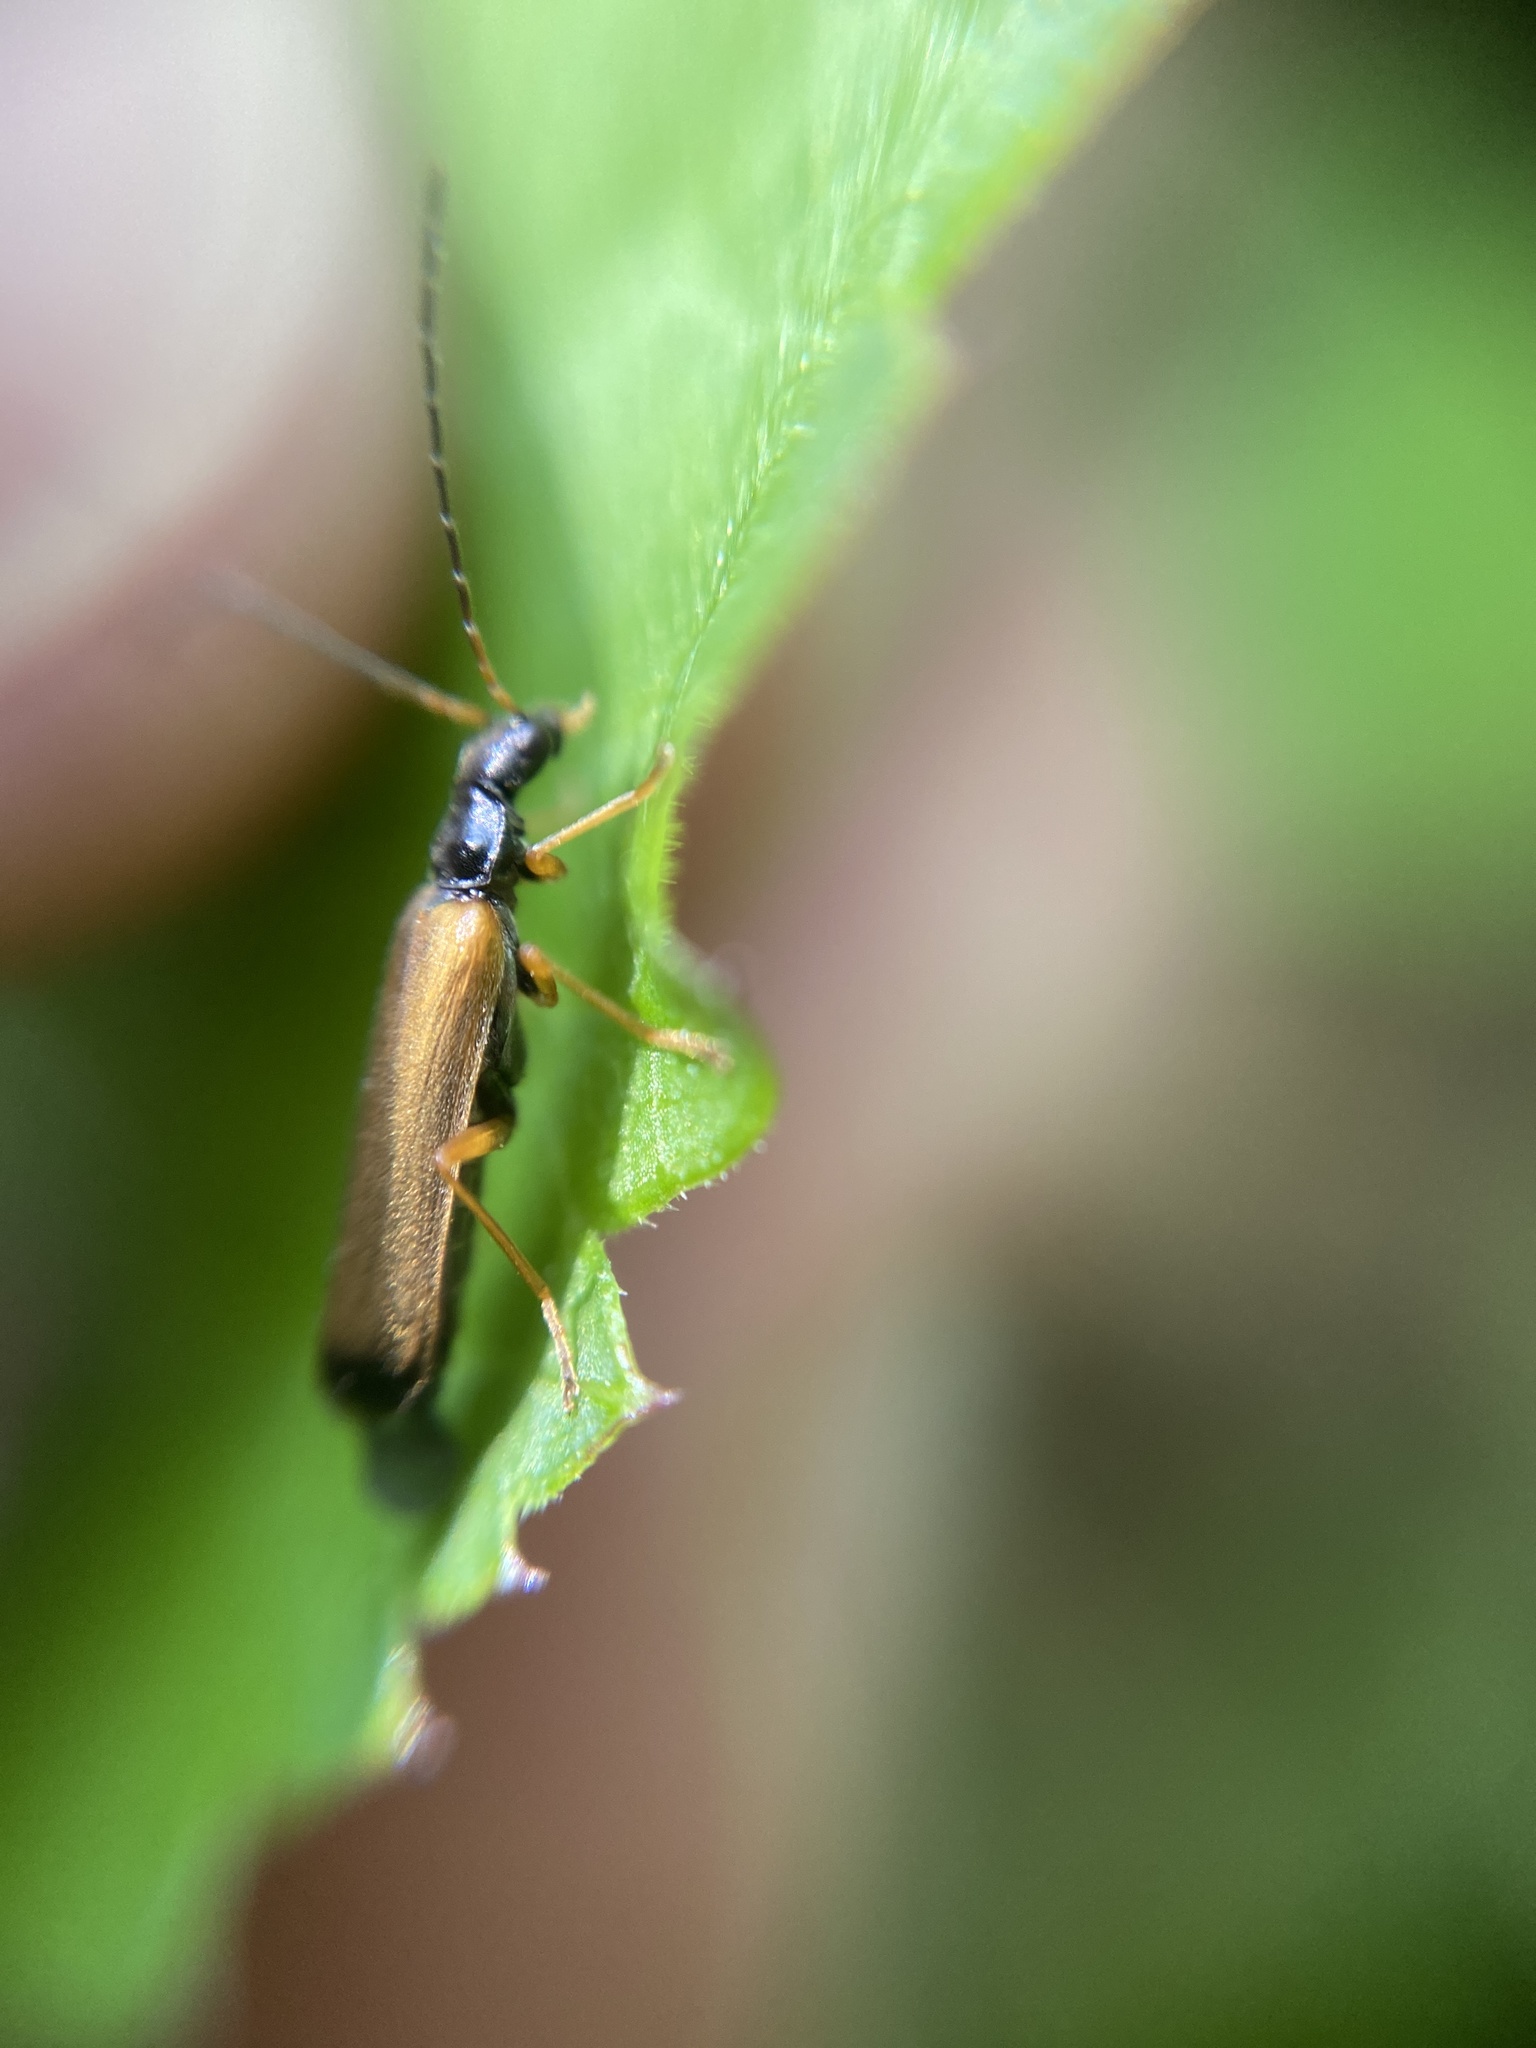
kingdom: Animalia
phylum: Arthropoda
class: Insecta
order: Coleoptera
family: Cantharidae
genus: Rhagonycha
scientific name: Rhagonycha lignosa
